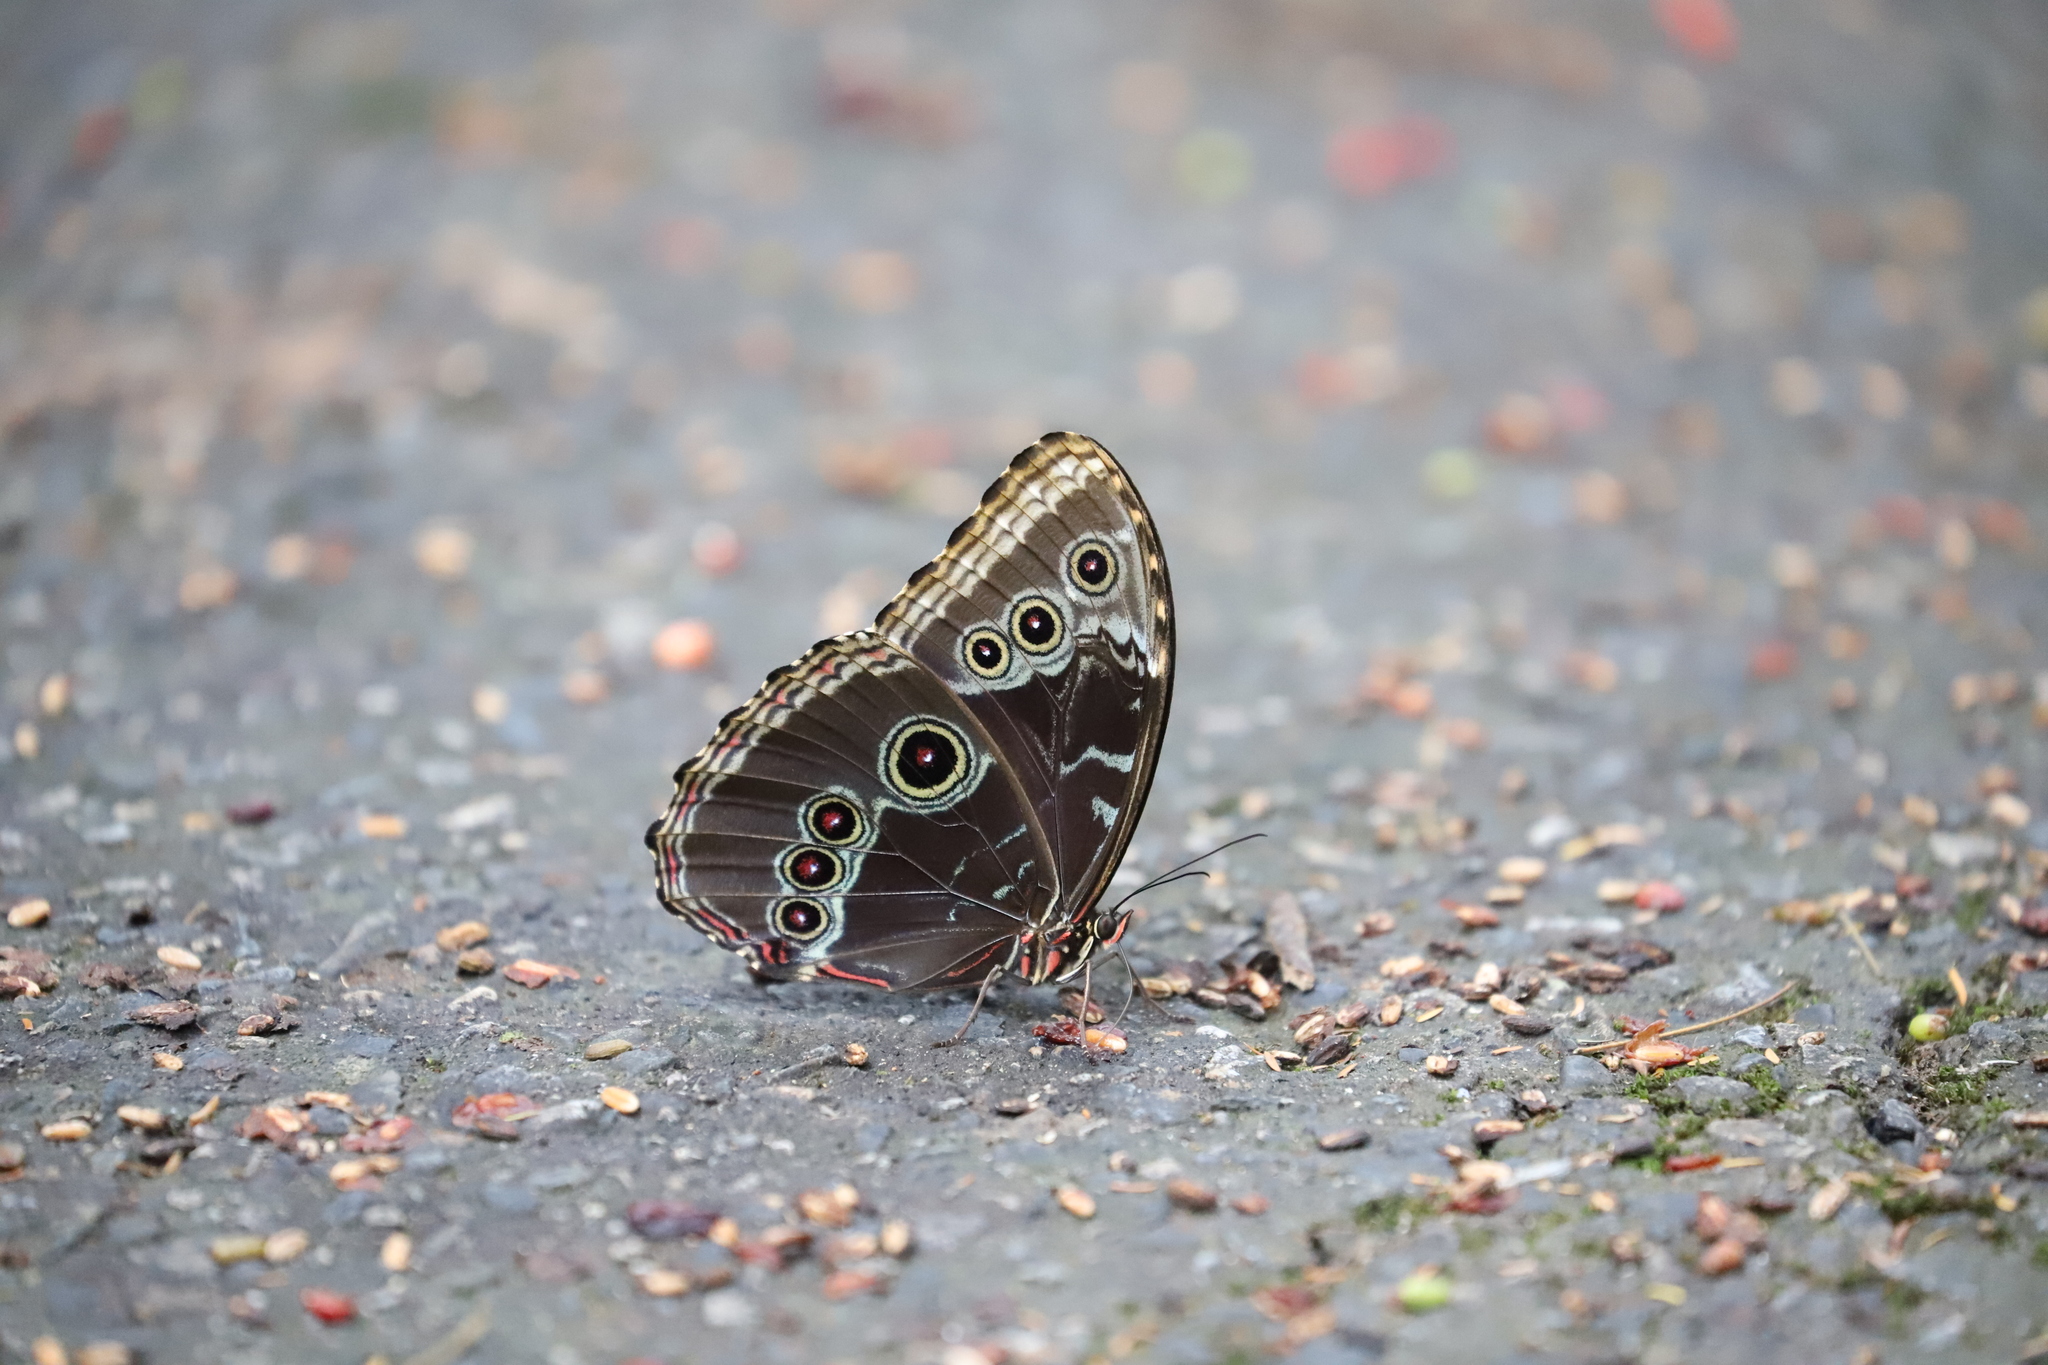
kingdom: Animalia
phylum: Arthropoda
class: Insecta
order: Lepidoptera
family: Nymphalidae
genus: Morpho
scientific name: Morpho helenor
